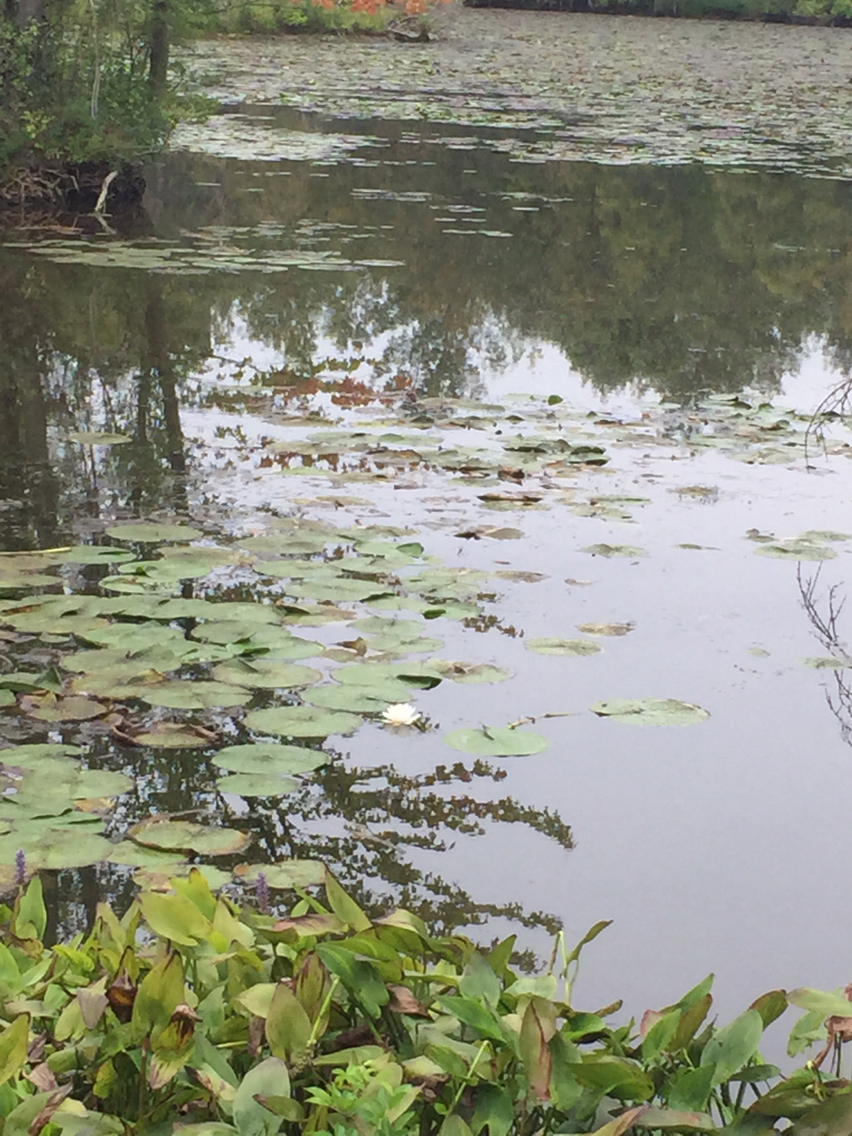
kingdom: Plantae
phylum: Tracheophyta
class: Magnoliopsida
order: Nymphaeales
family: Nymphaeaceae
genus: Nymphaea
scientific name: Nymphaea odorata
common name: Fragrant water-lily
